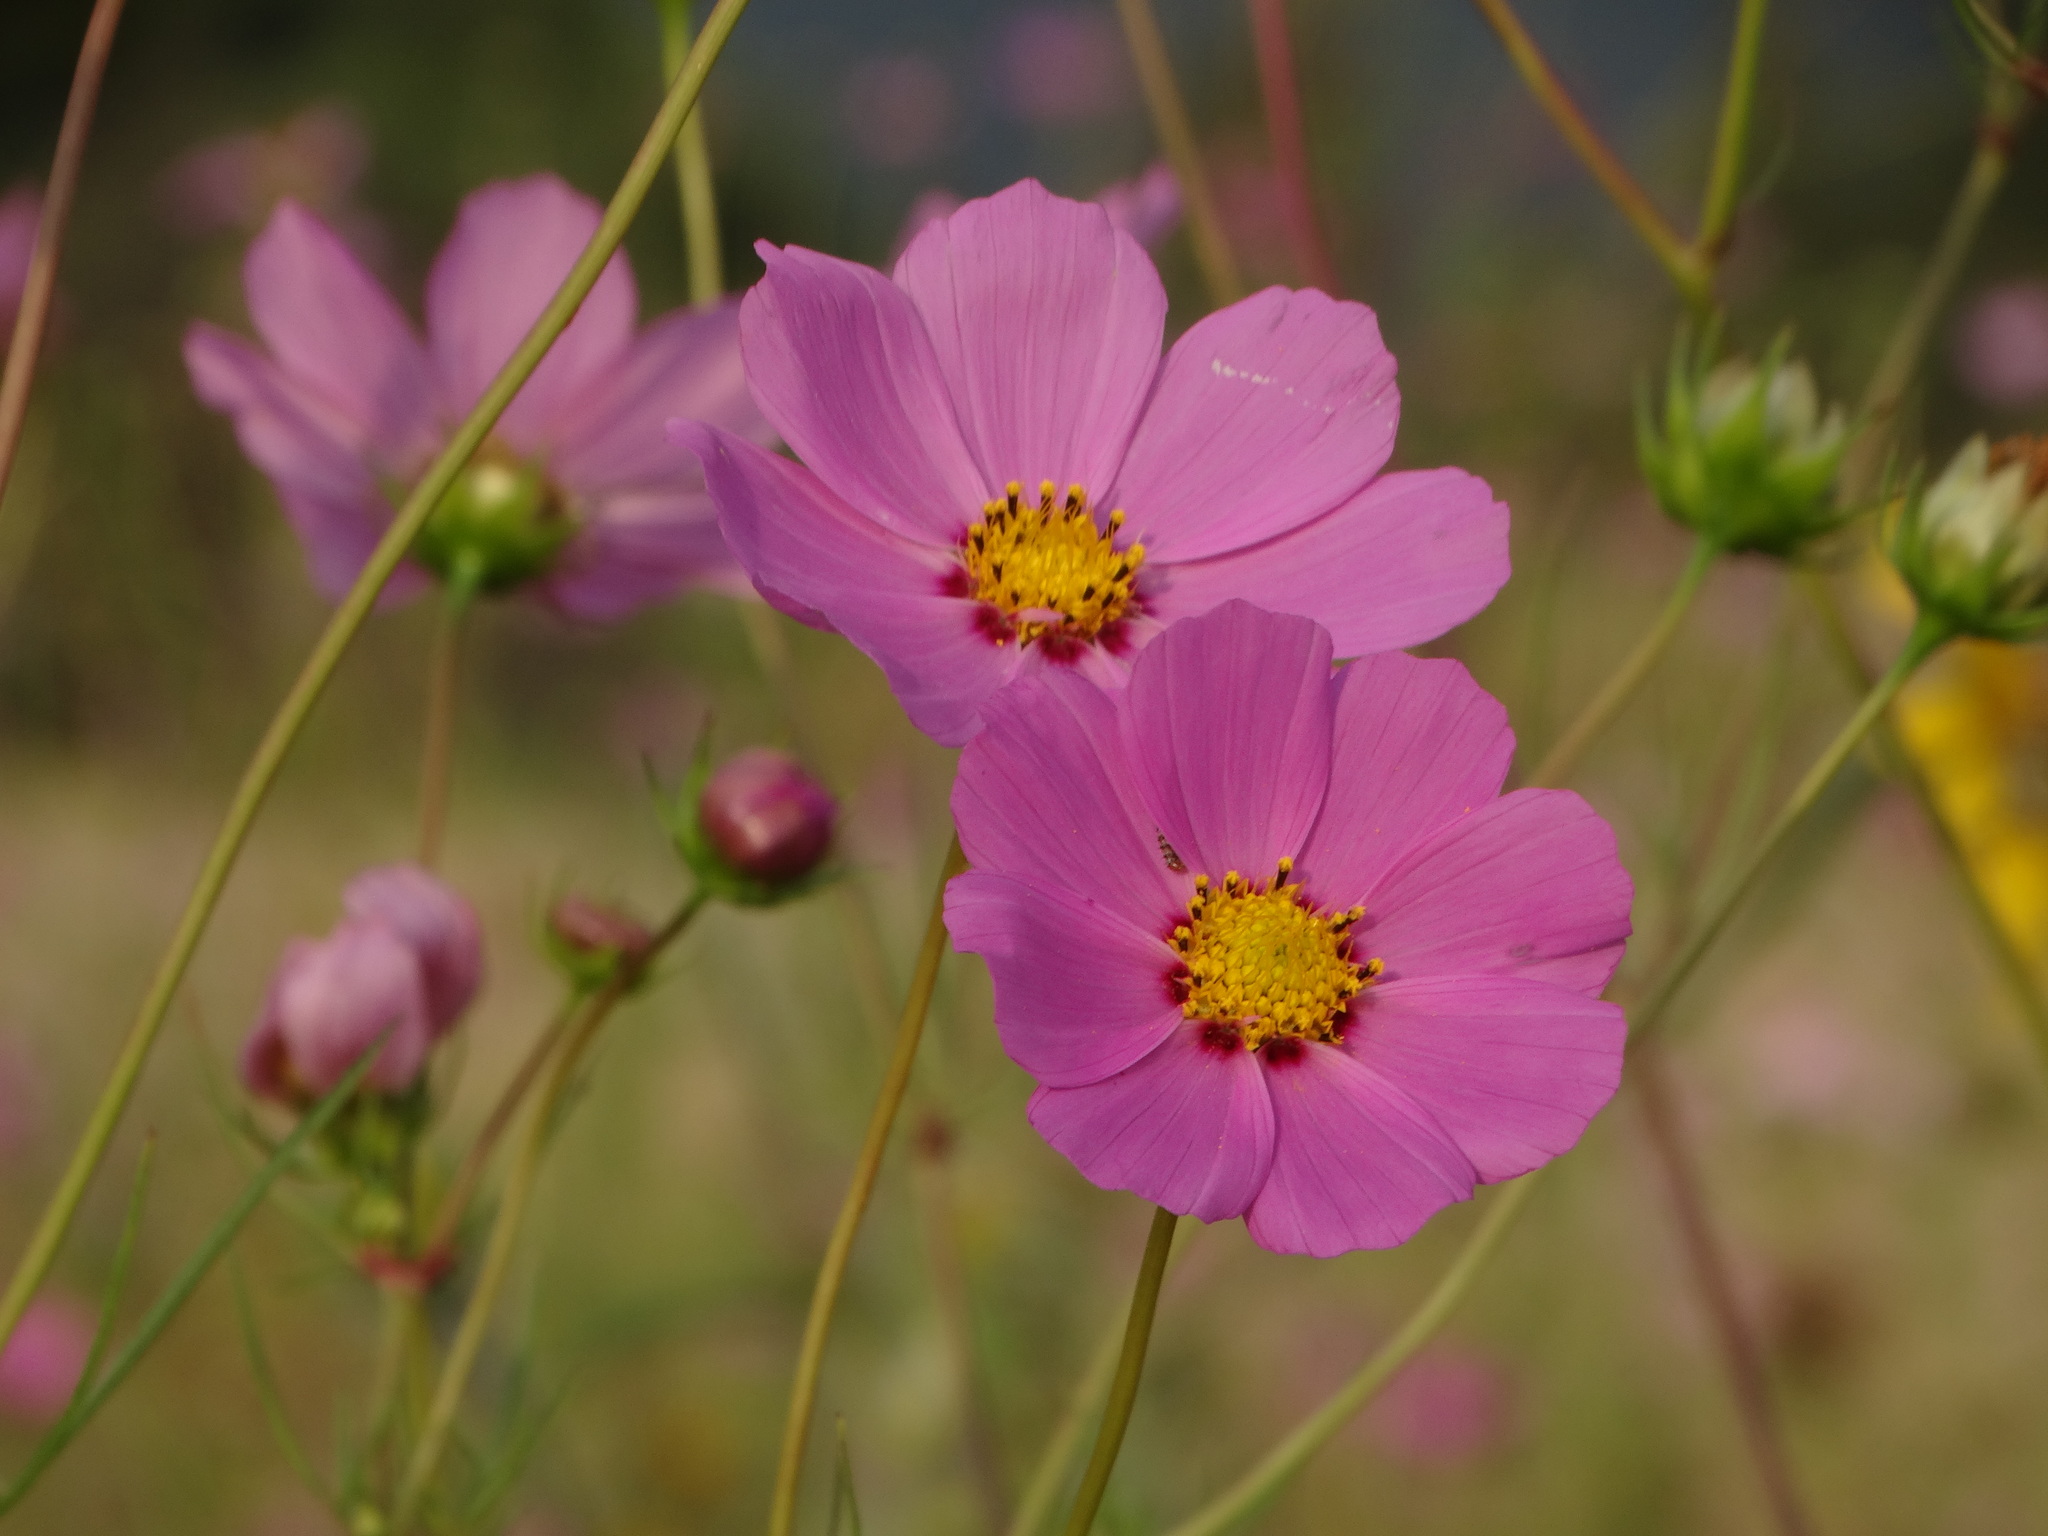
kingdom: Plantae
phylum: Tracheophyta
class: Magnoliopsida
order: Asterales
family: Asteraceae
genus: Cosmos
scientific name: Cosmos bipinnatus
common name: Garden cosmos
